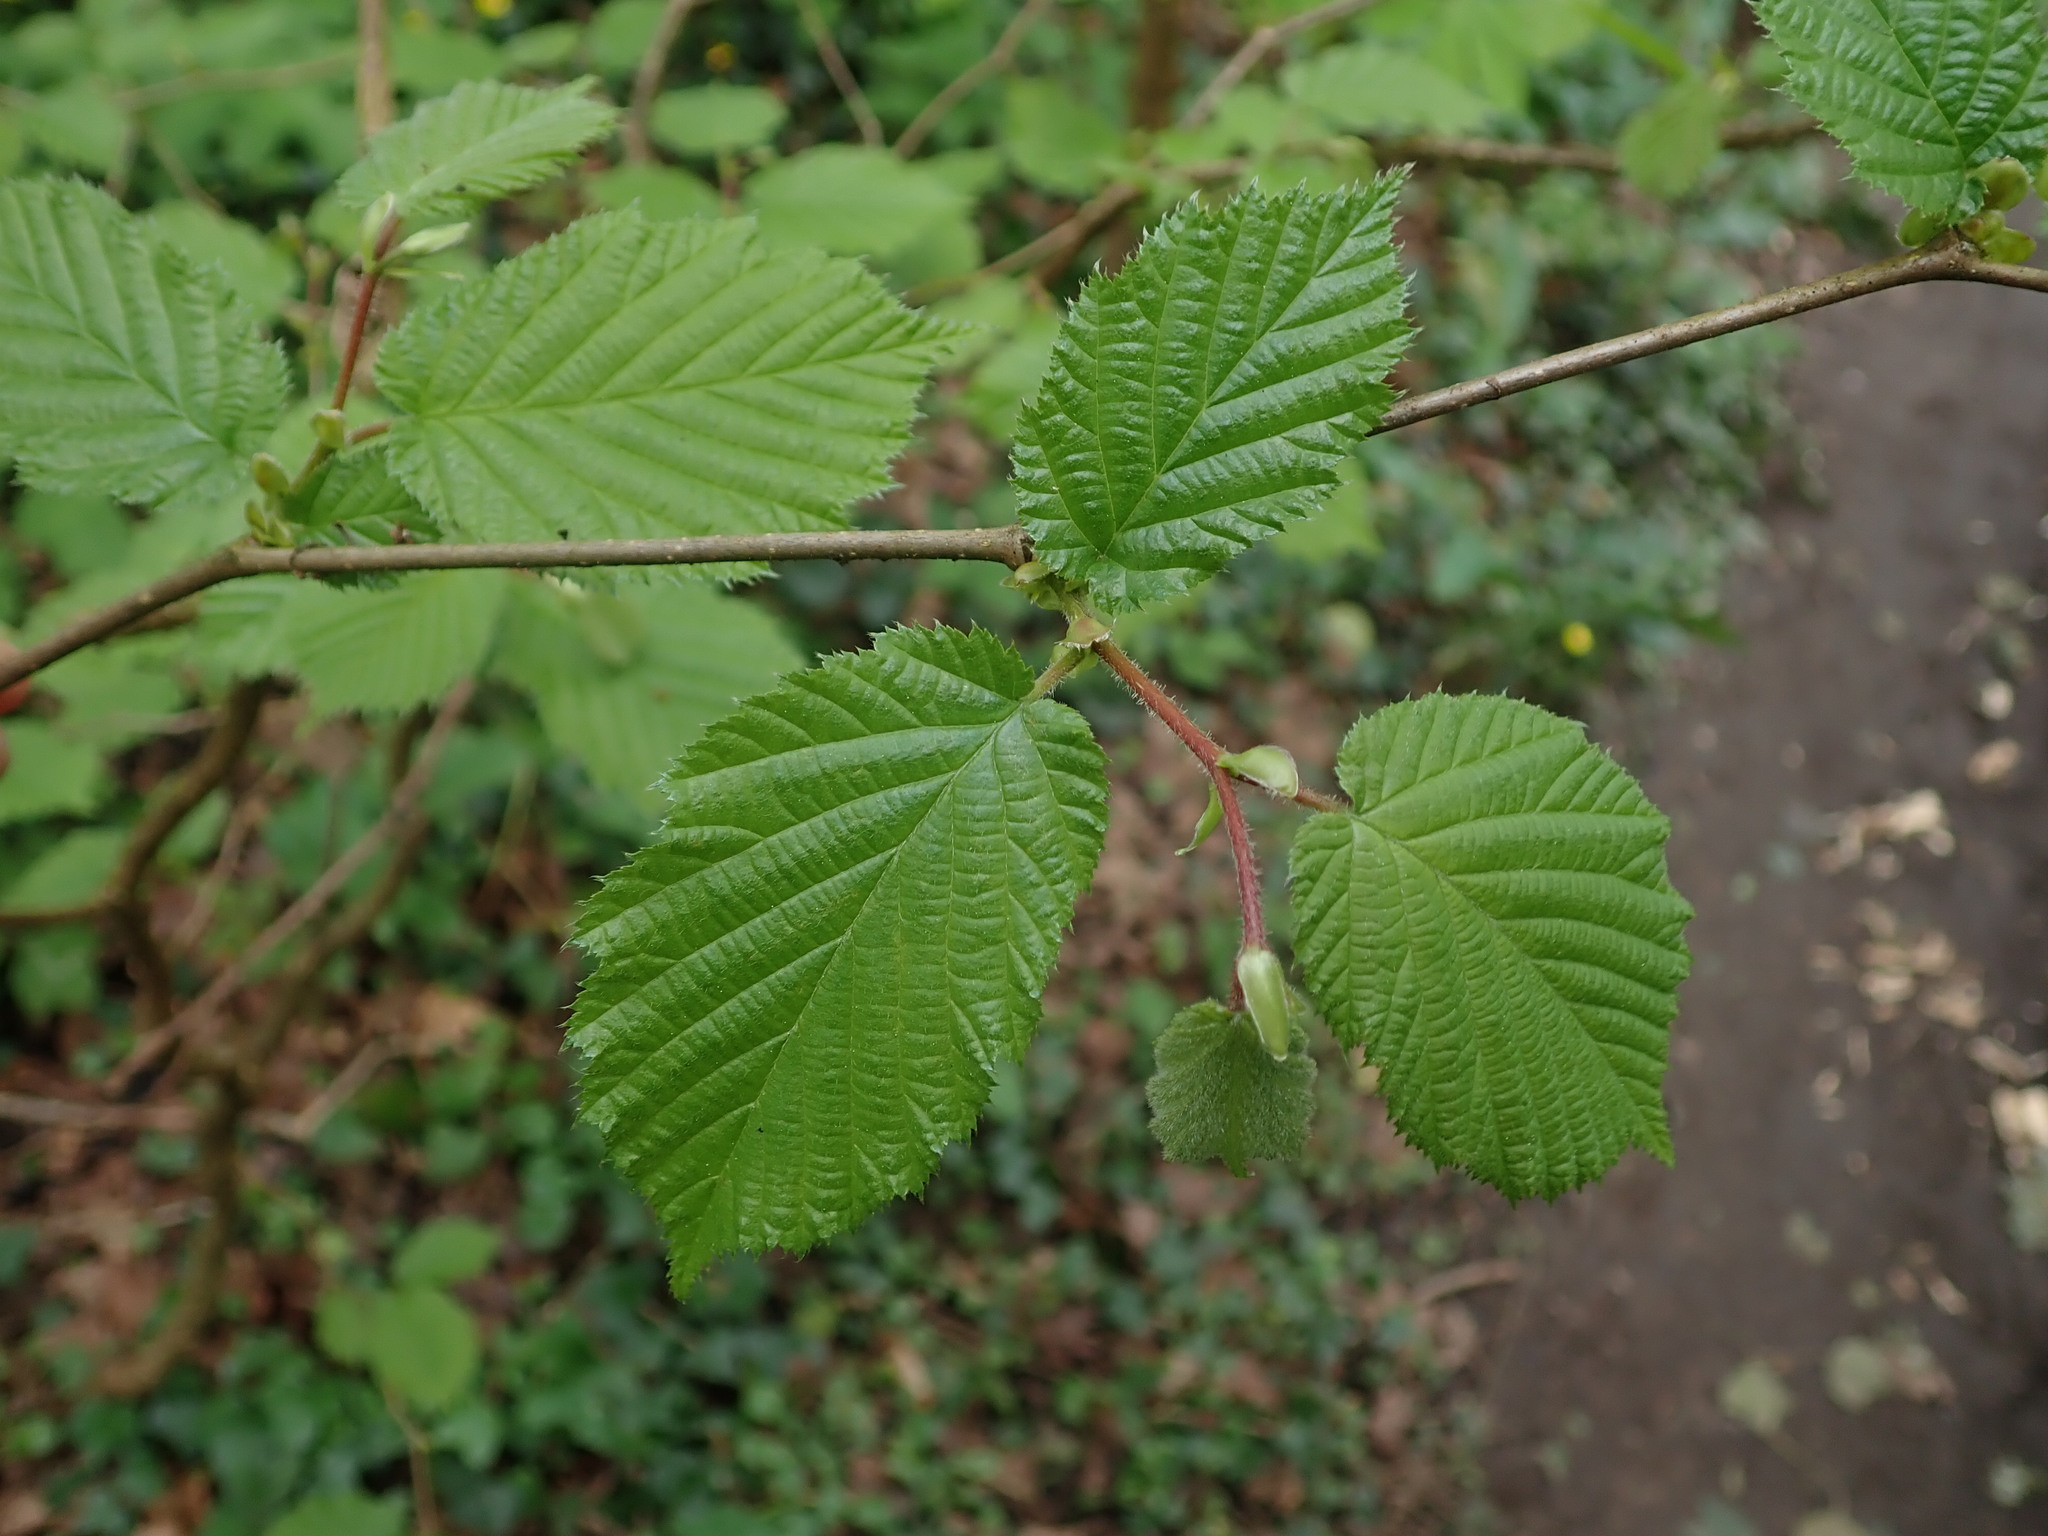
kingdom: Plantae
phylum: Tracheophyta
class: Magnoliopsida
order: Fagales
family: Betulaceae
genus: Corylus
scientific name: Corylus avellana
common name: European hazel
